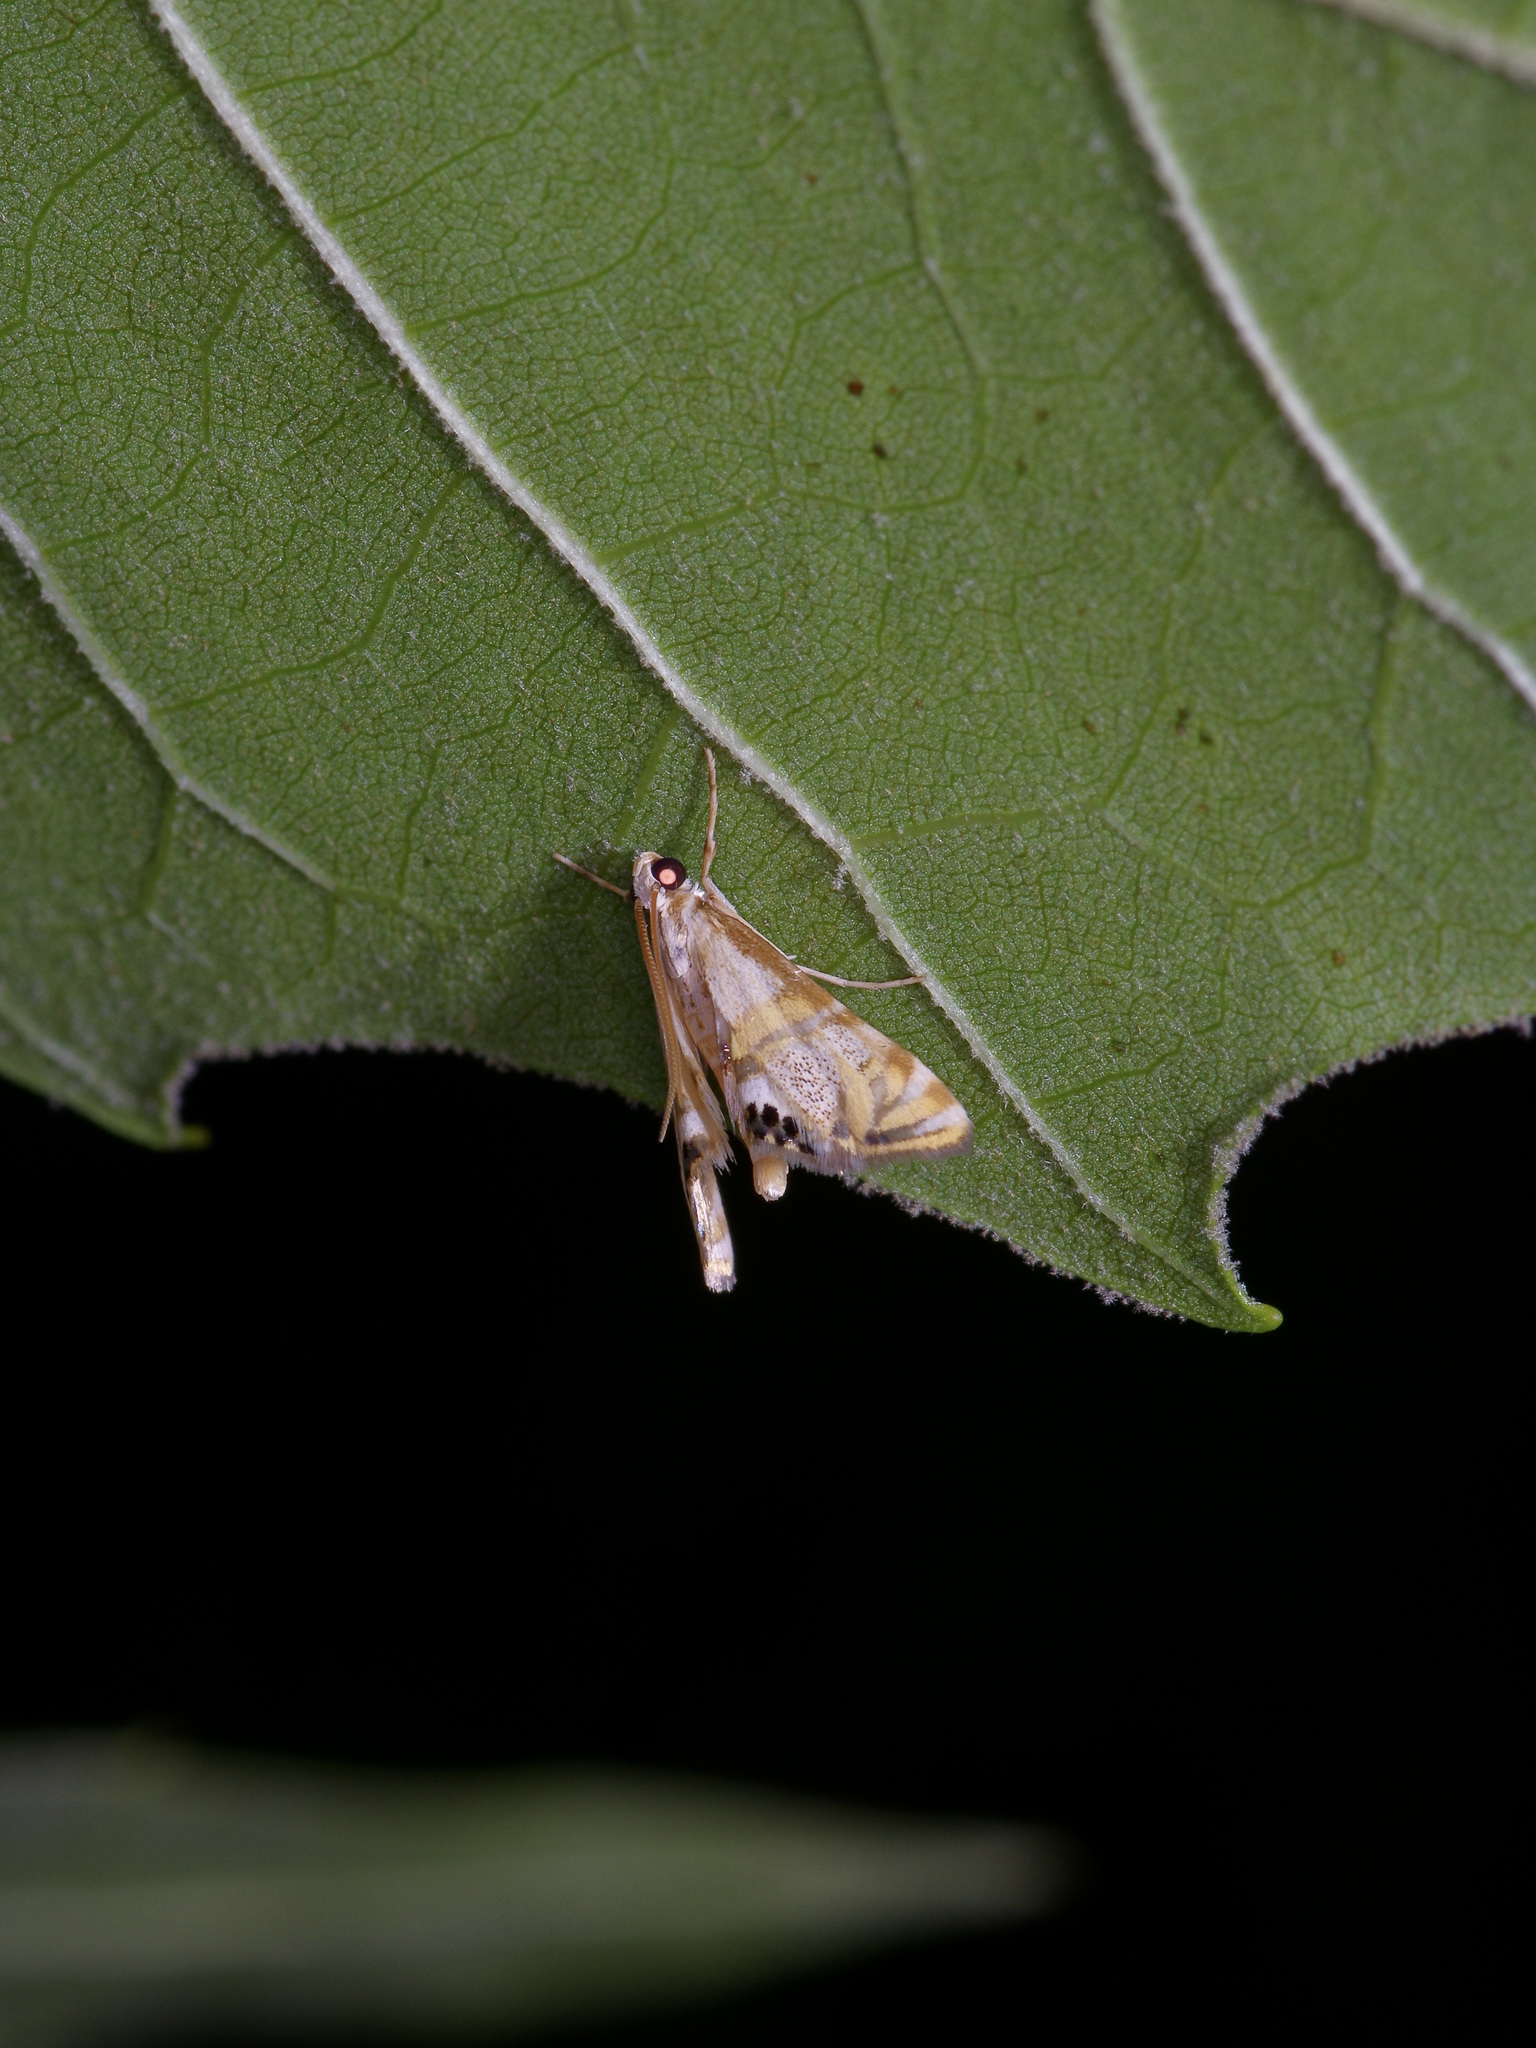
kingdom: Animalia
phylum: Arthropoda
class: Insecta
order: Lepidoptera
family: Crambidae
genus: Petrophila
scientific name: Petrophila bifascialis
